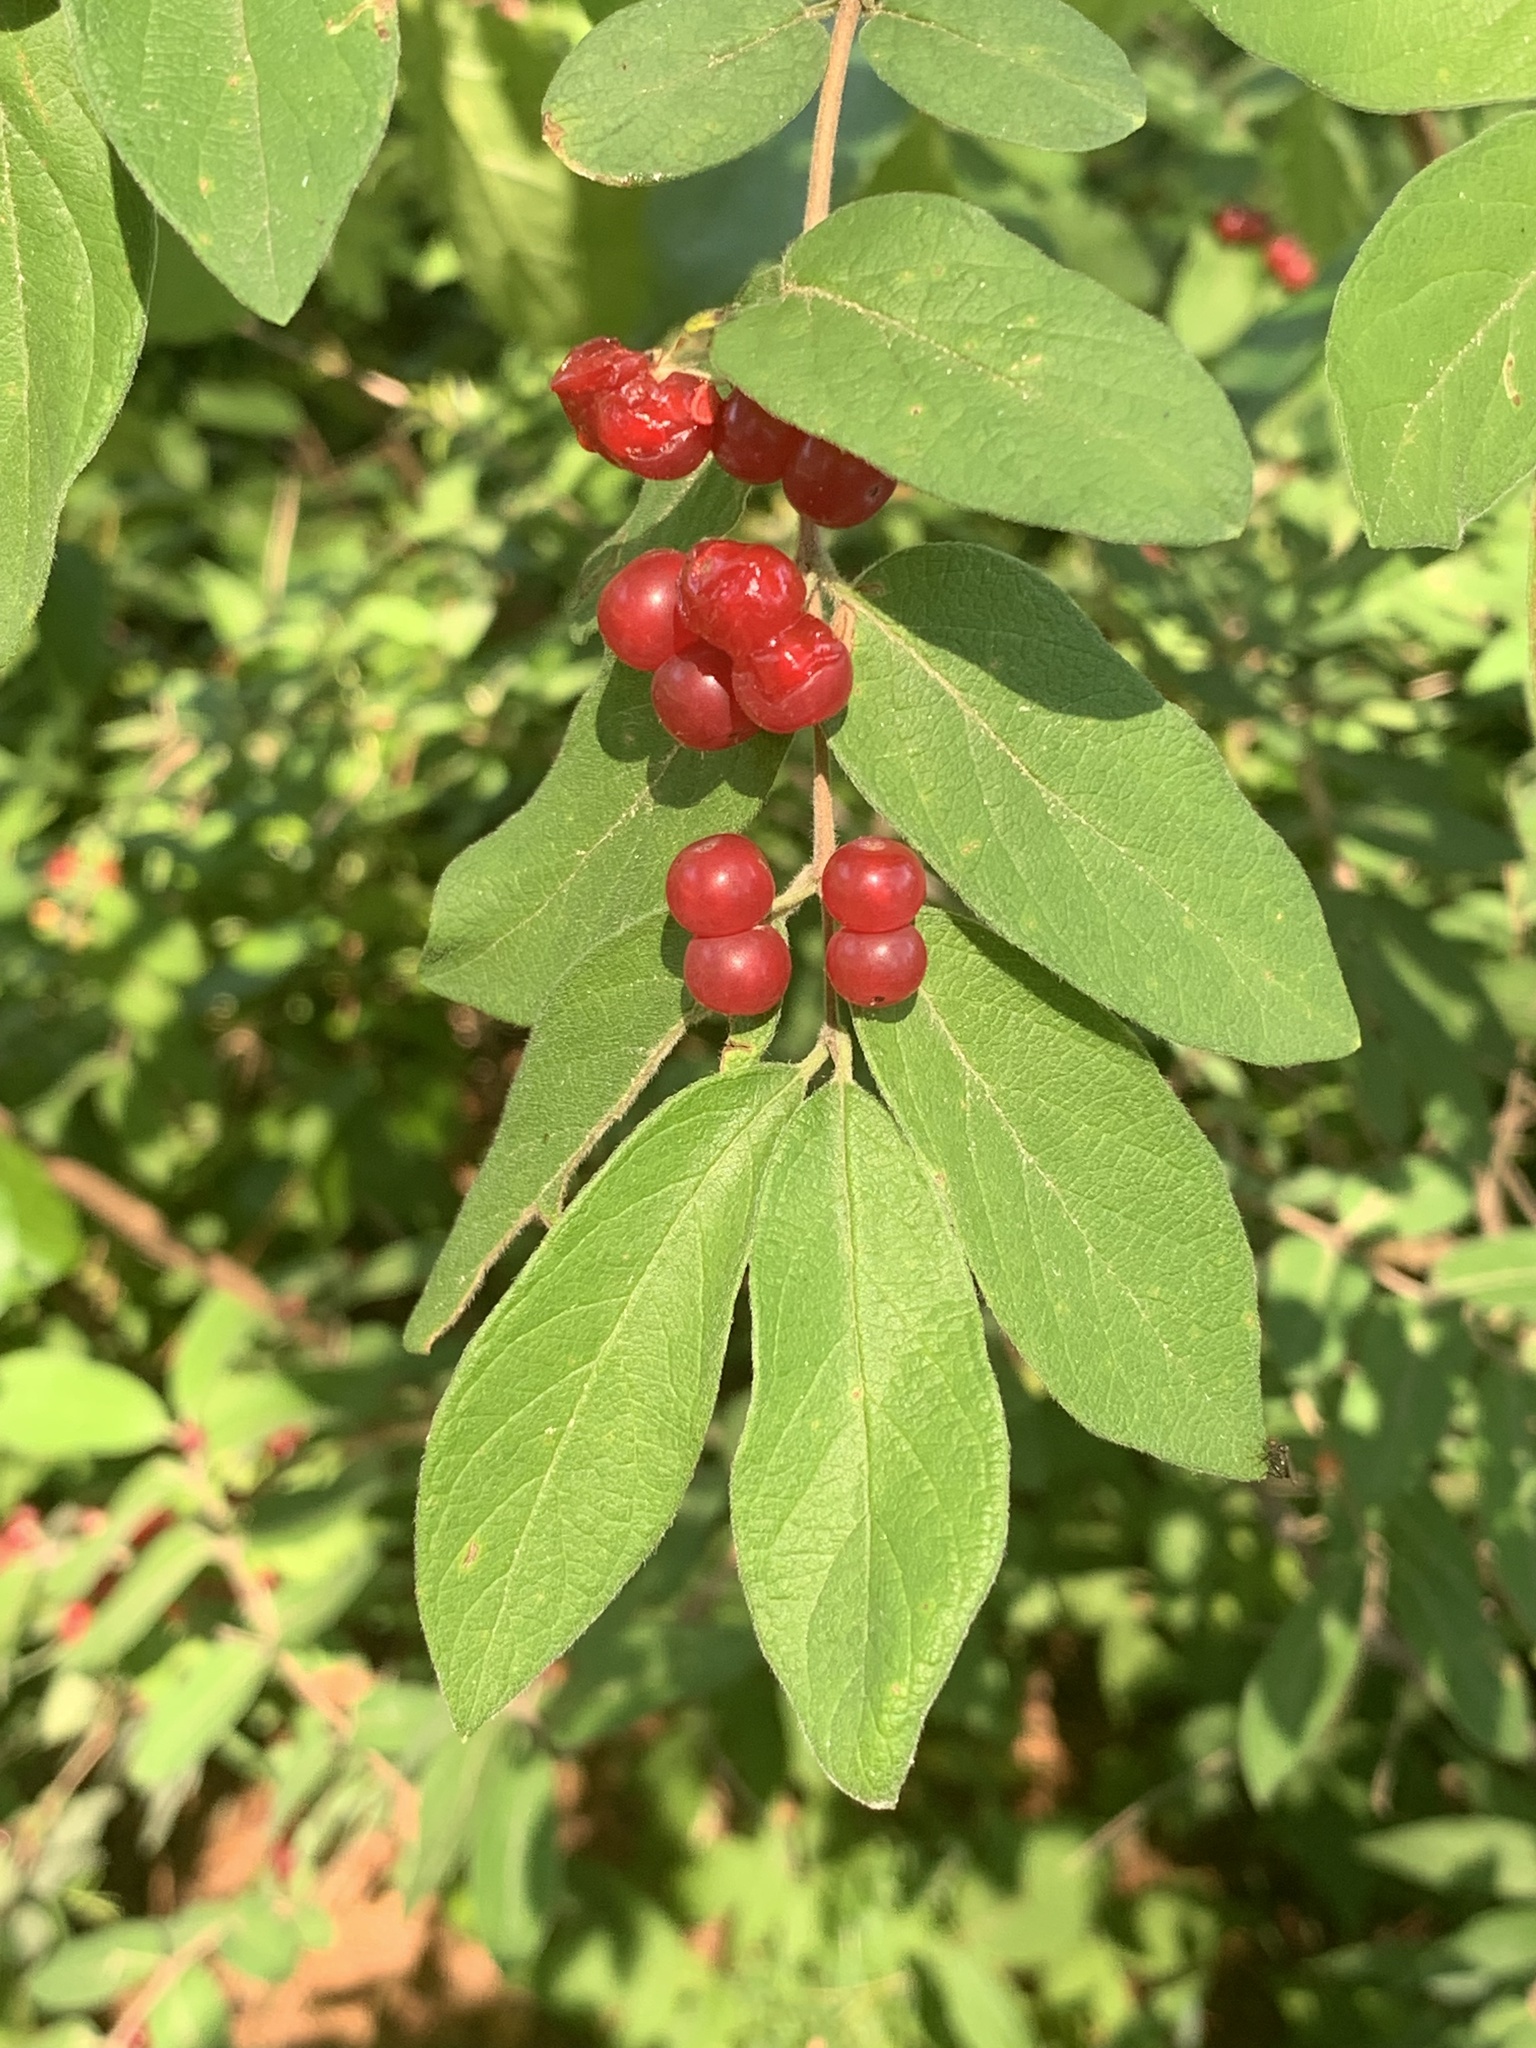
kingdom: Plantae
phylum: Tracheophyta
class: Magnoliopsida
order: Dipsacales
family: Caprifoliaceae
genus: Lonicera
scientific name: Lonicera morrowii
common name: Morrow's honeysuckle
